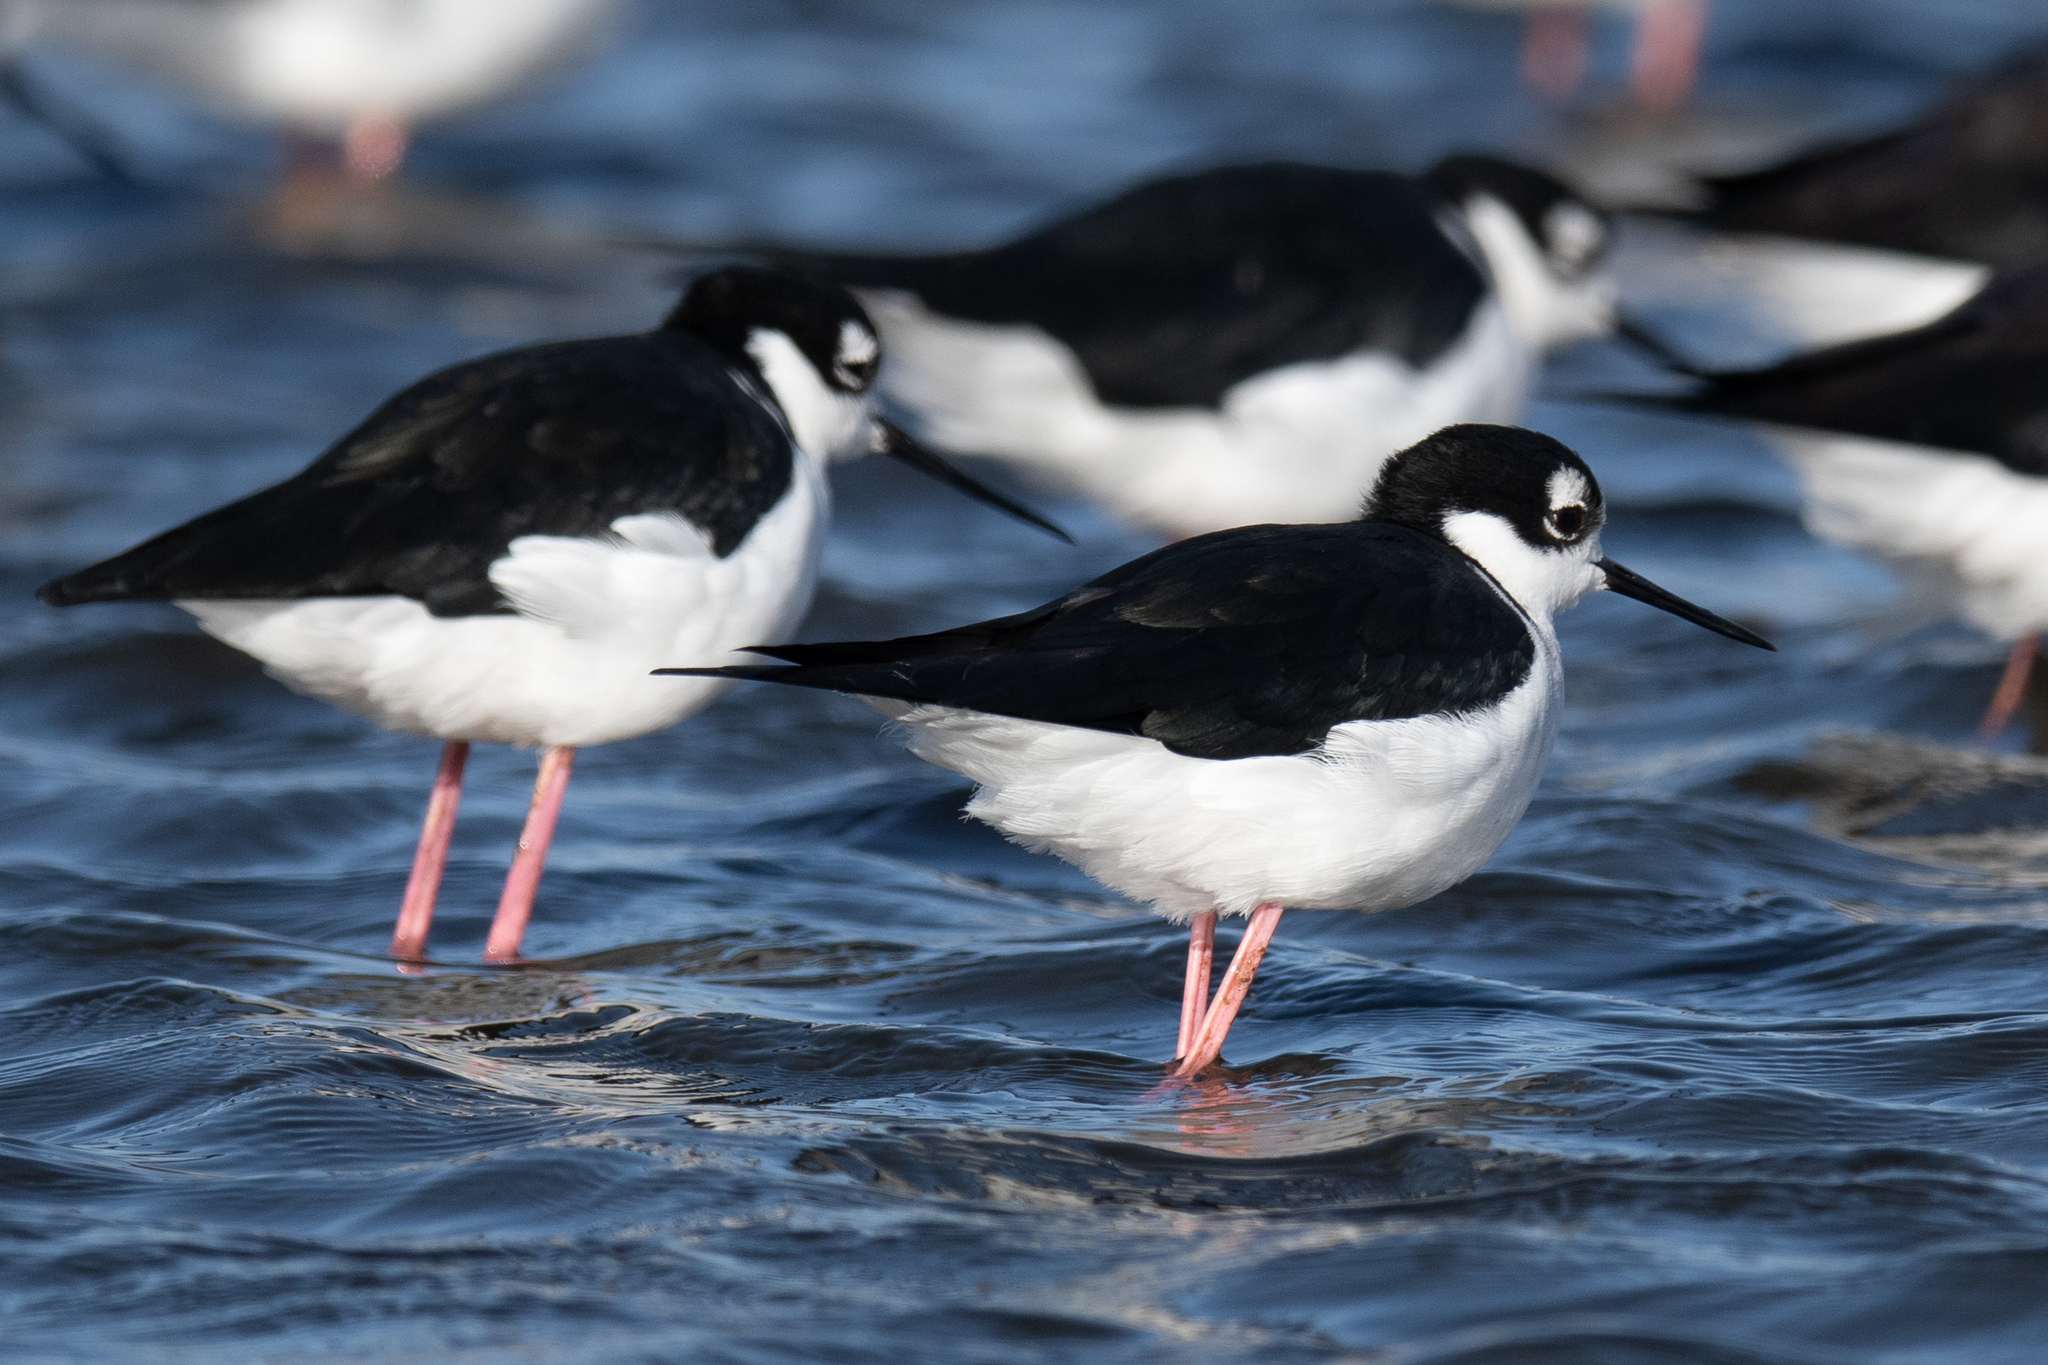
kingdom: Animalia
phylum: Chordata
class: Aves
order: Charadriiformes
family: Recurvirostridae
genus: Himantopus
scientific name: Himantopus mexicanus
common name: Black-necked stilt
